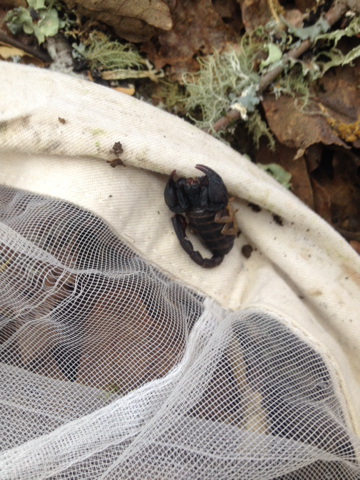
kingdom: Animalia
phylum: Arthropoda
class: Arachnida
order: Scorpiones
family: Chactidae
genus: Uroctonus
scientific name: Uroctonus mordax
